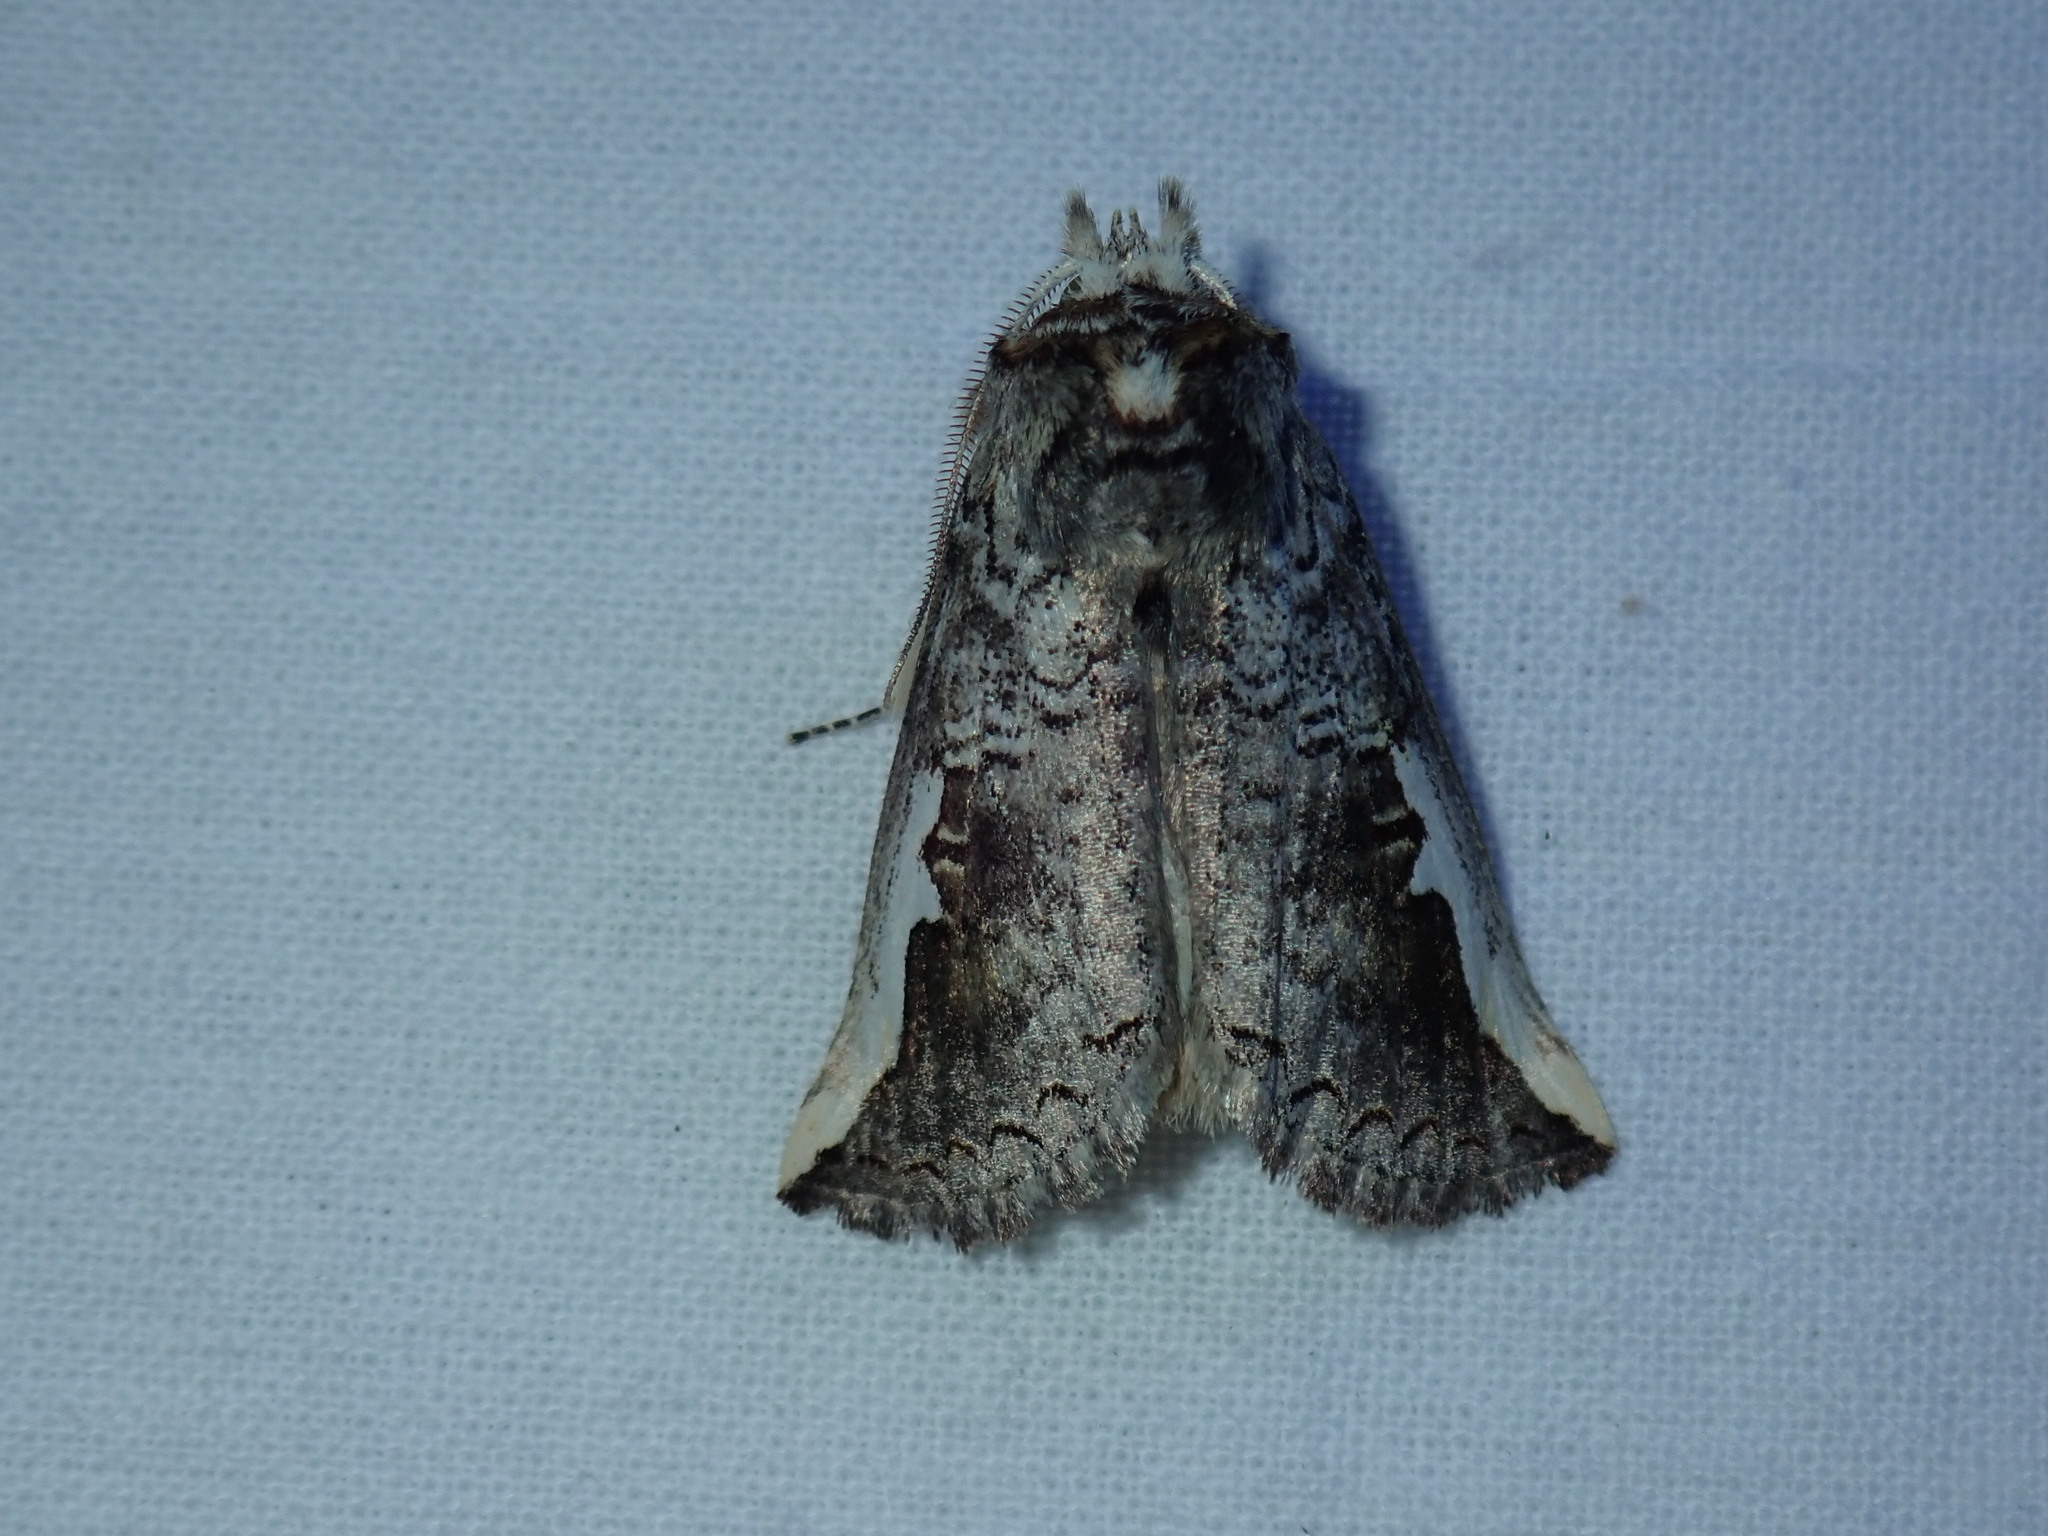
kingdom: Animalia
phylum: Arthropoda
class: Insecta
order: Lepidoptera
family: Notodontidae
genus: Symmerista
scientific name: Symmerista albifrons
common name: White-headed prominent
